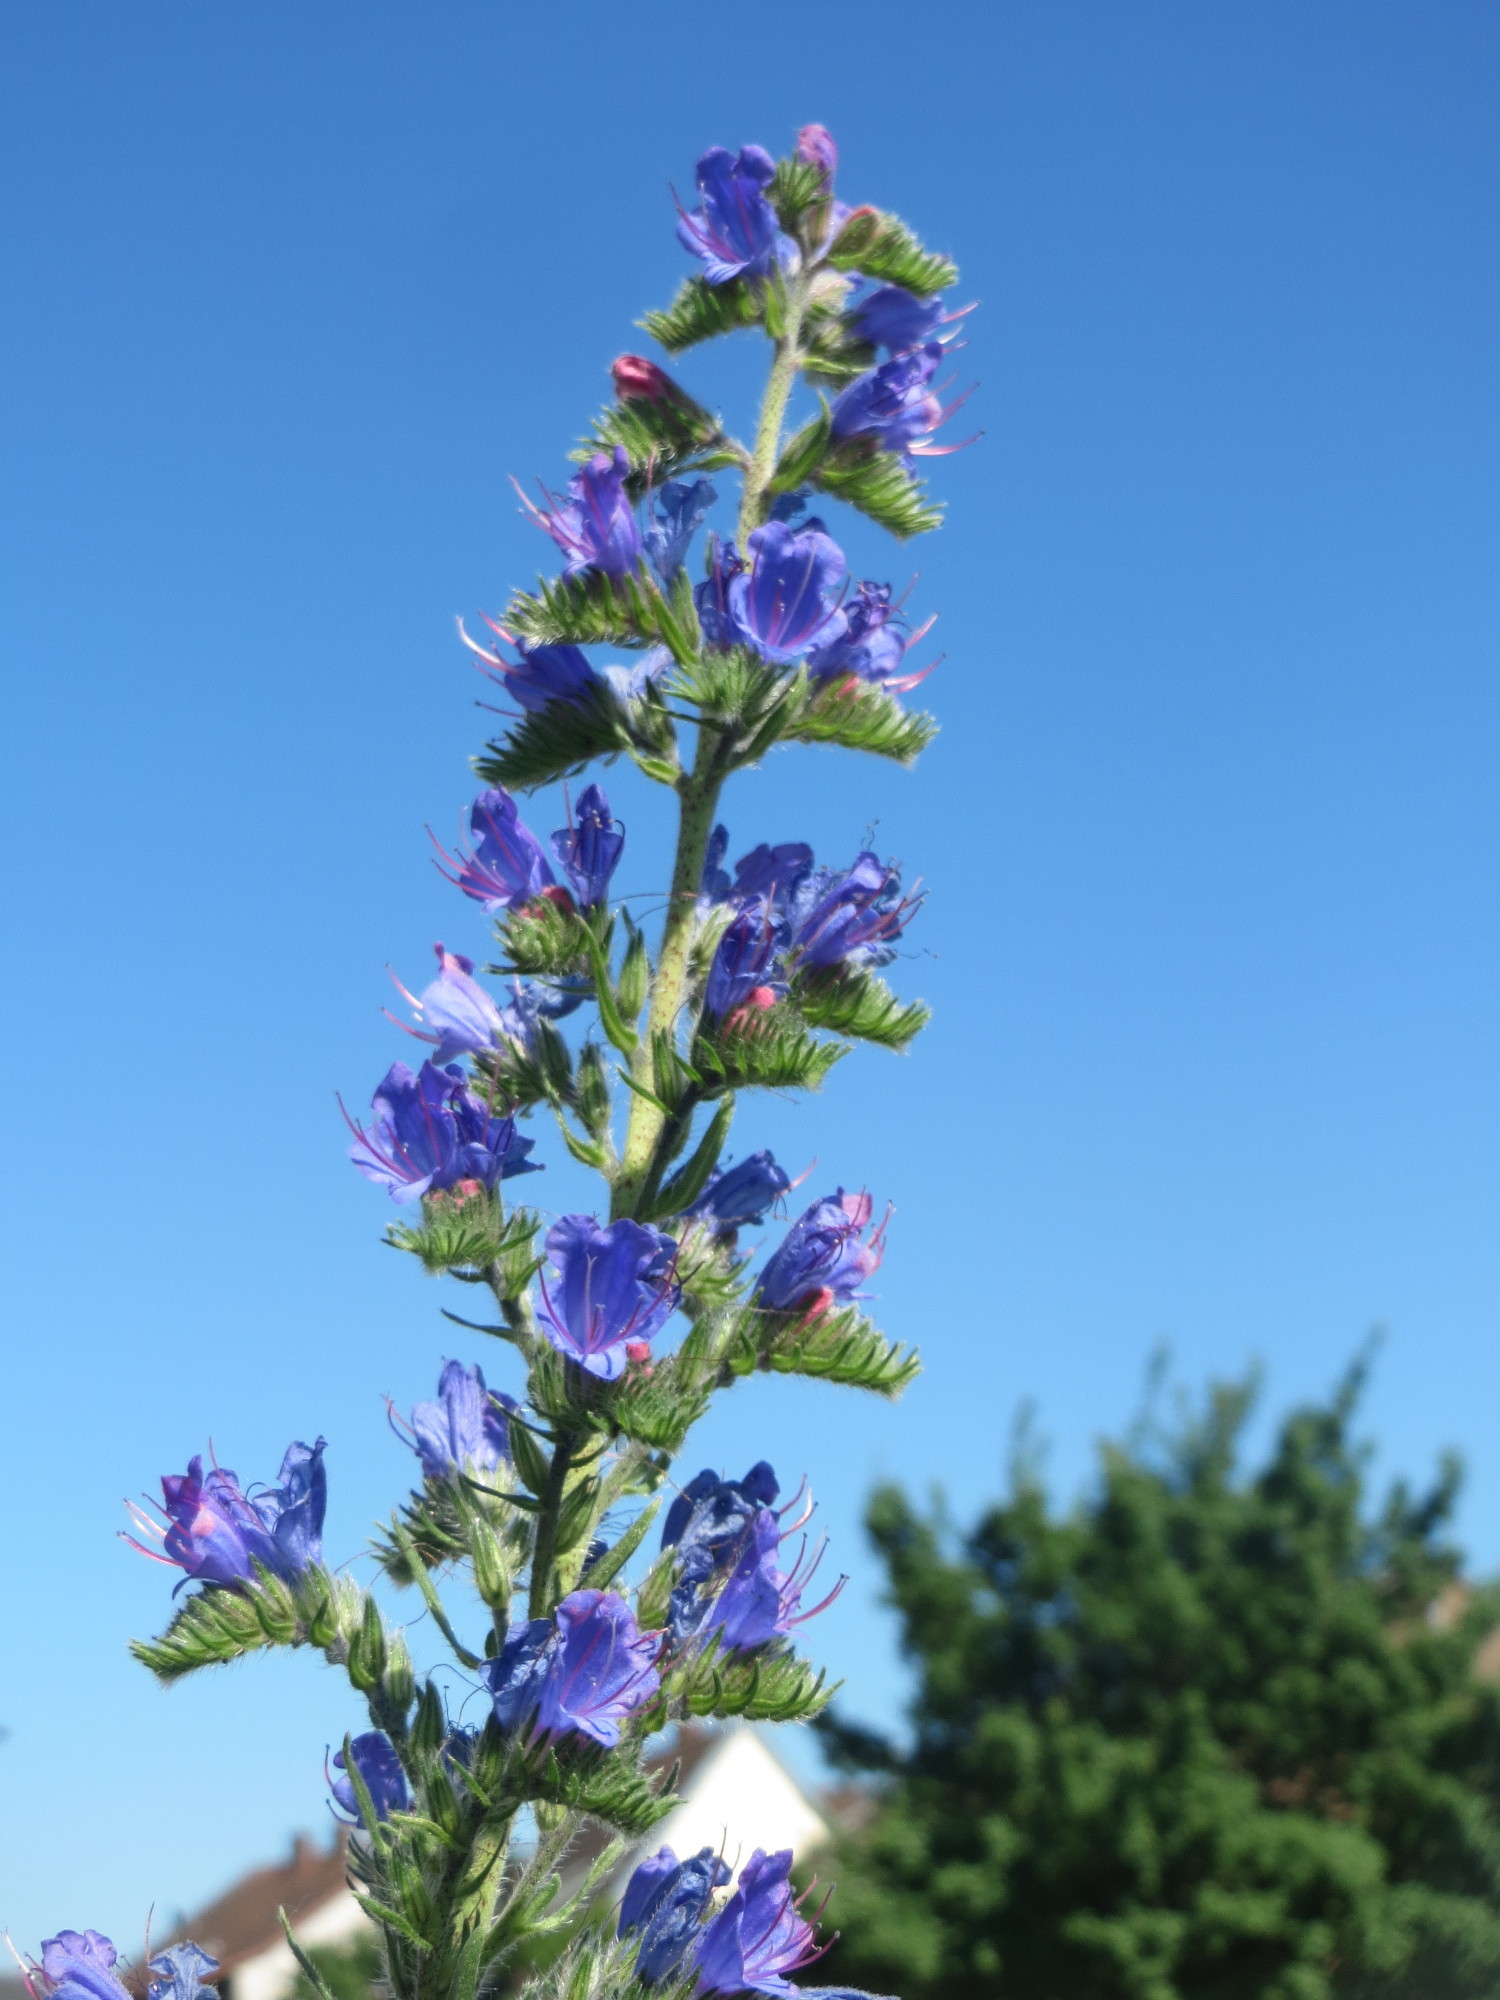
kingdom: Plantae
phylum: Tracheophyta
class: Magnoliopsida
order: Boraginales
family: Boraginaceae
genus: Echium
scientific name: Echium vulgare
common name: Common viper's bugloss
